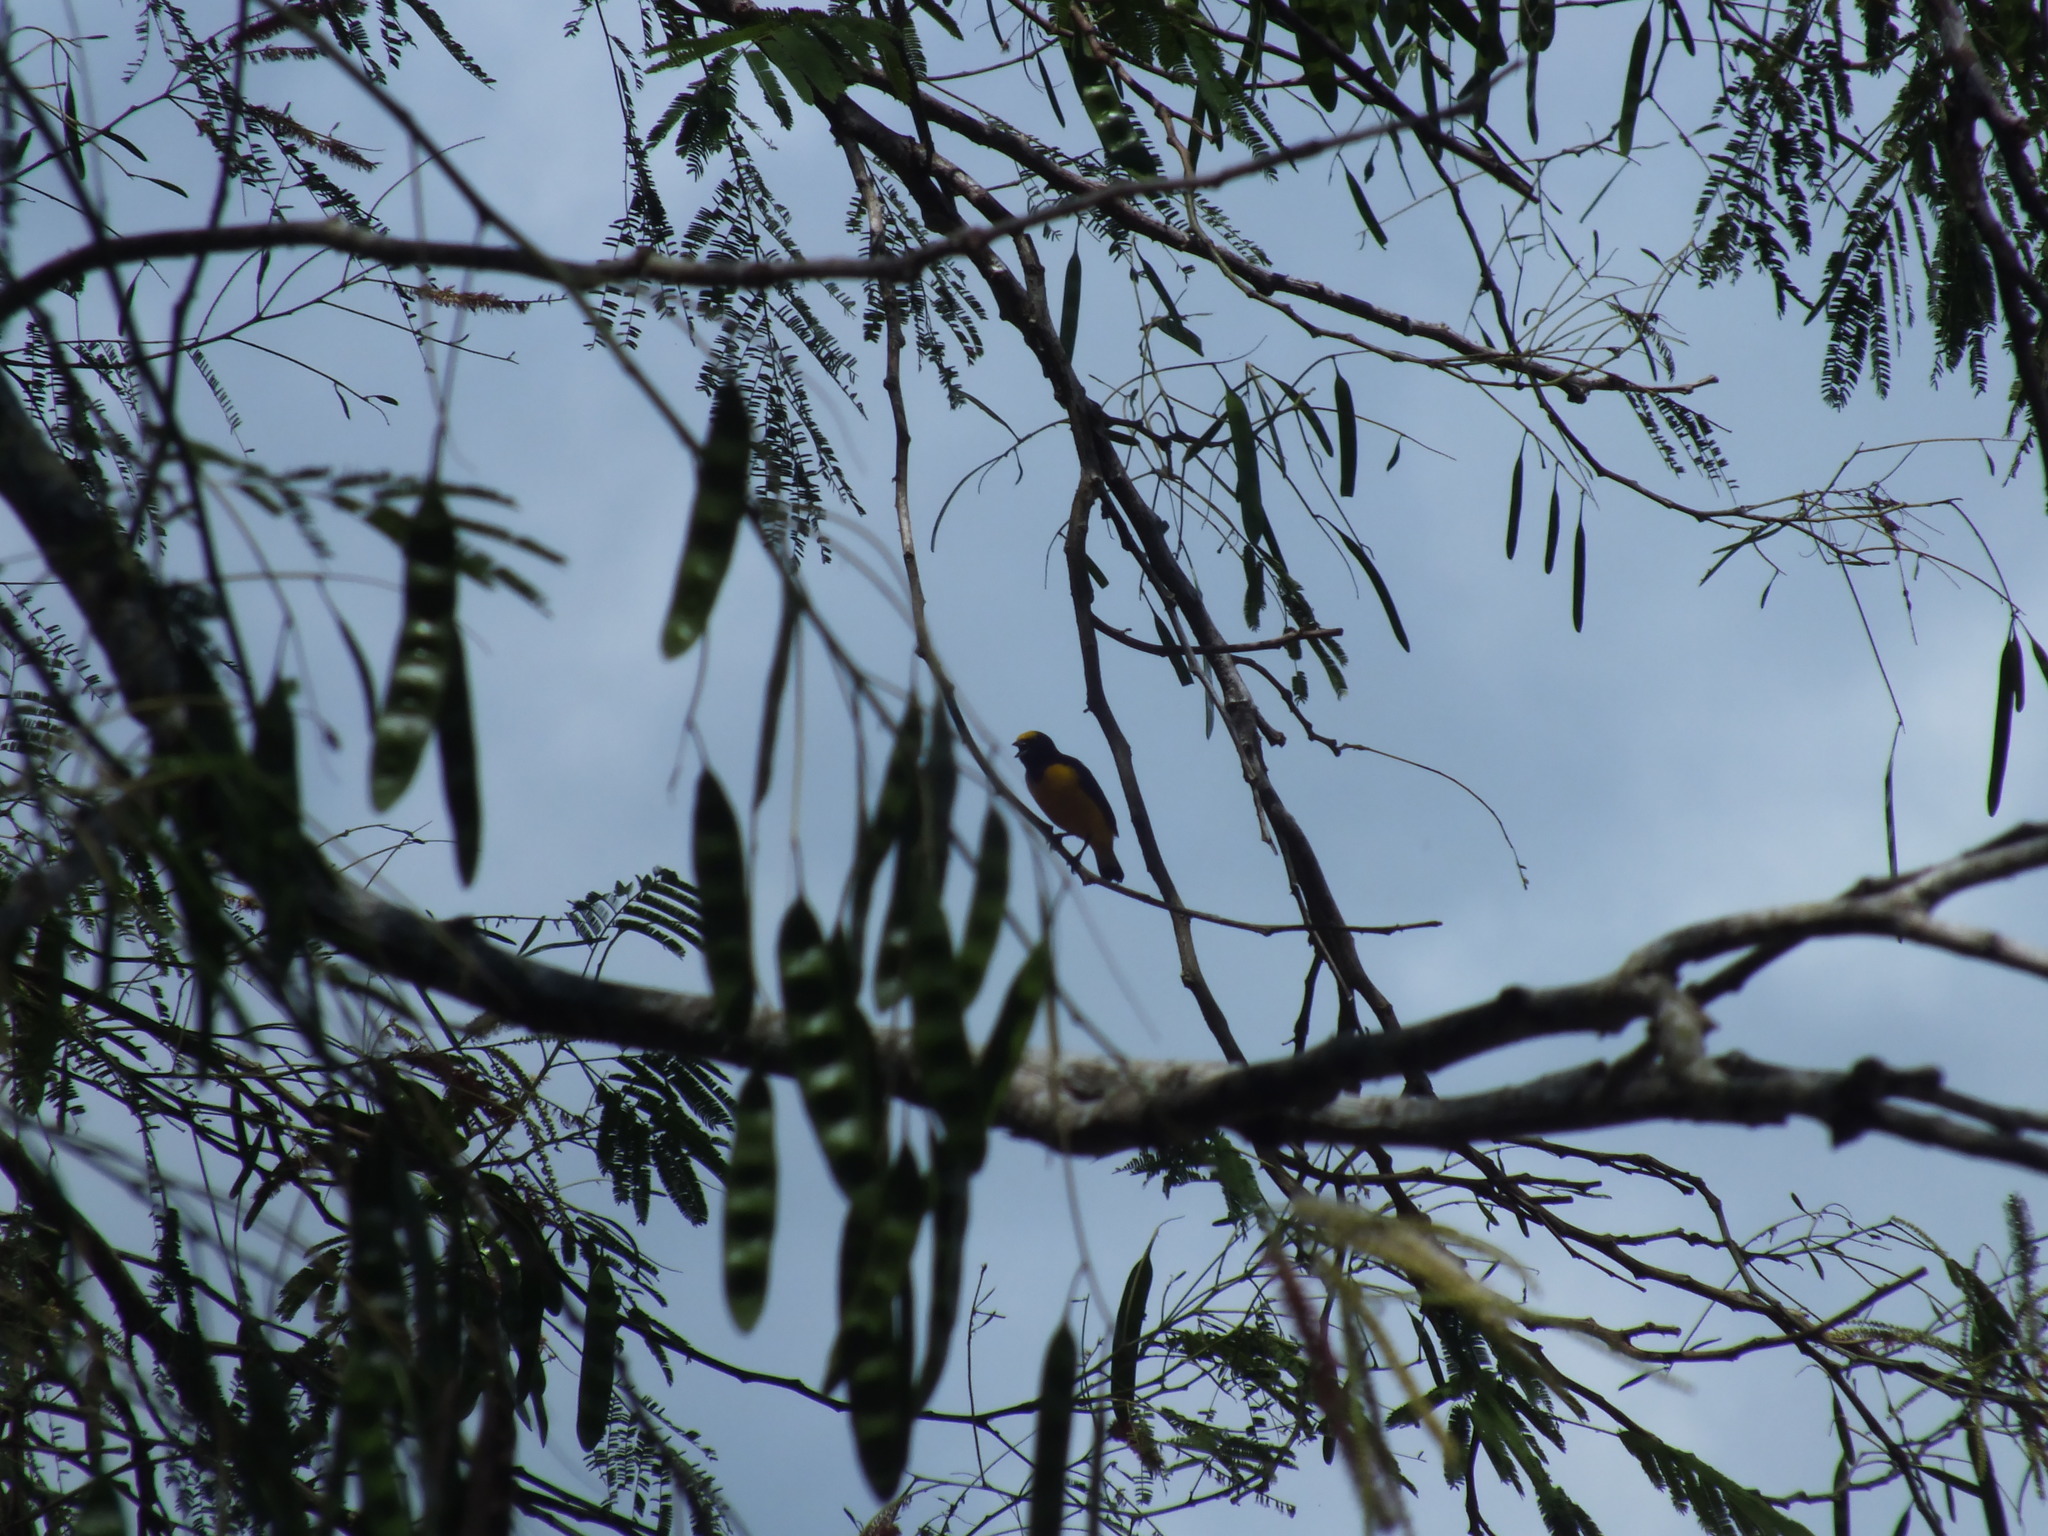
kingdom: Animalia
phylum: Chordata
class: Aves
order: Passeriformes
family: Fringillidae
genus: Euphonia
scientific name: Euphonia chlorotica
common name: Purple-throated euphonia
